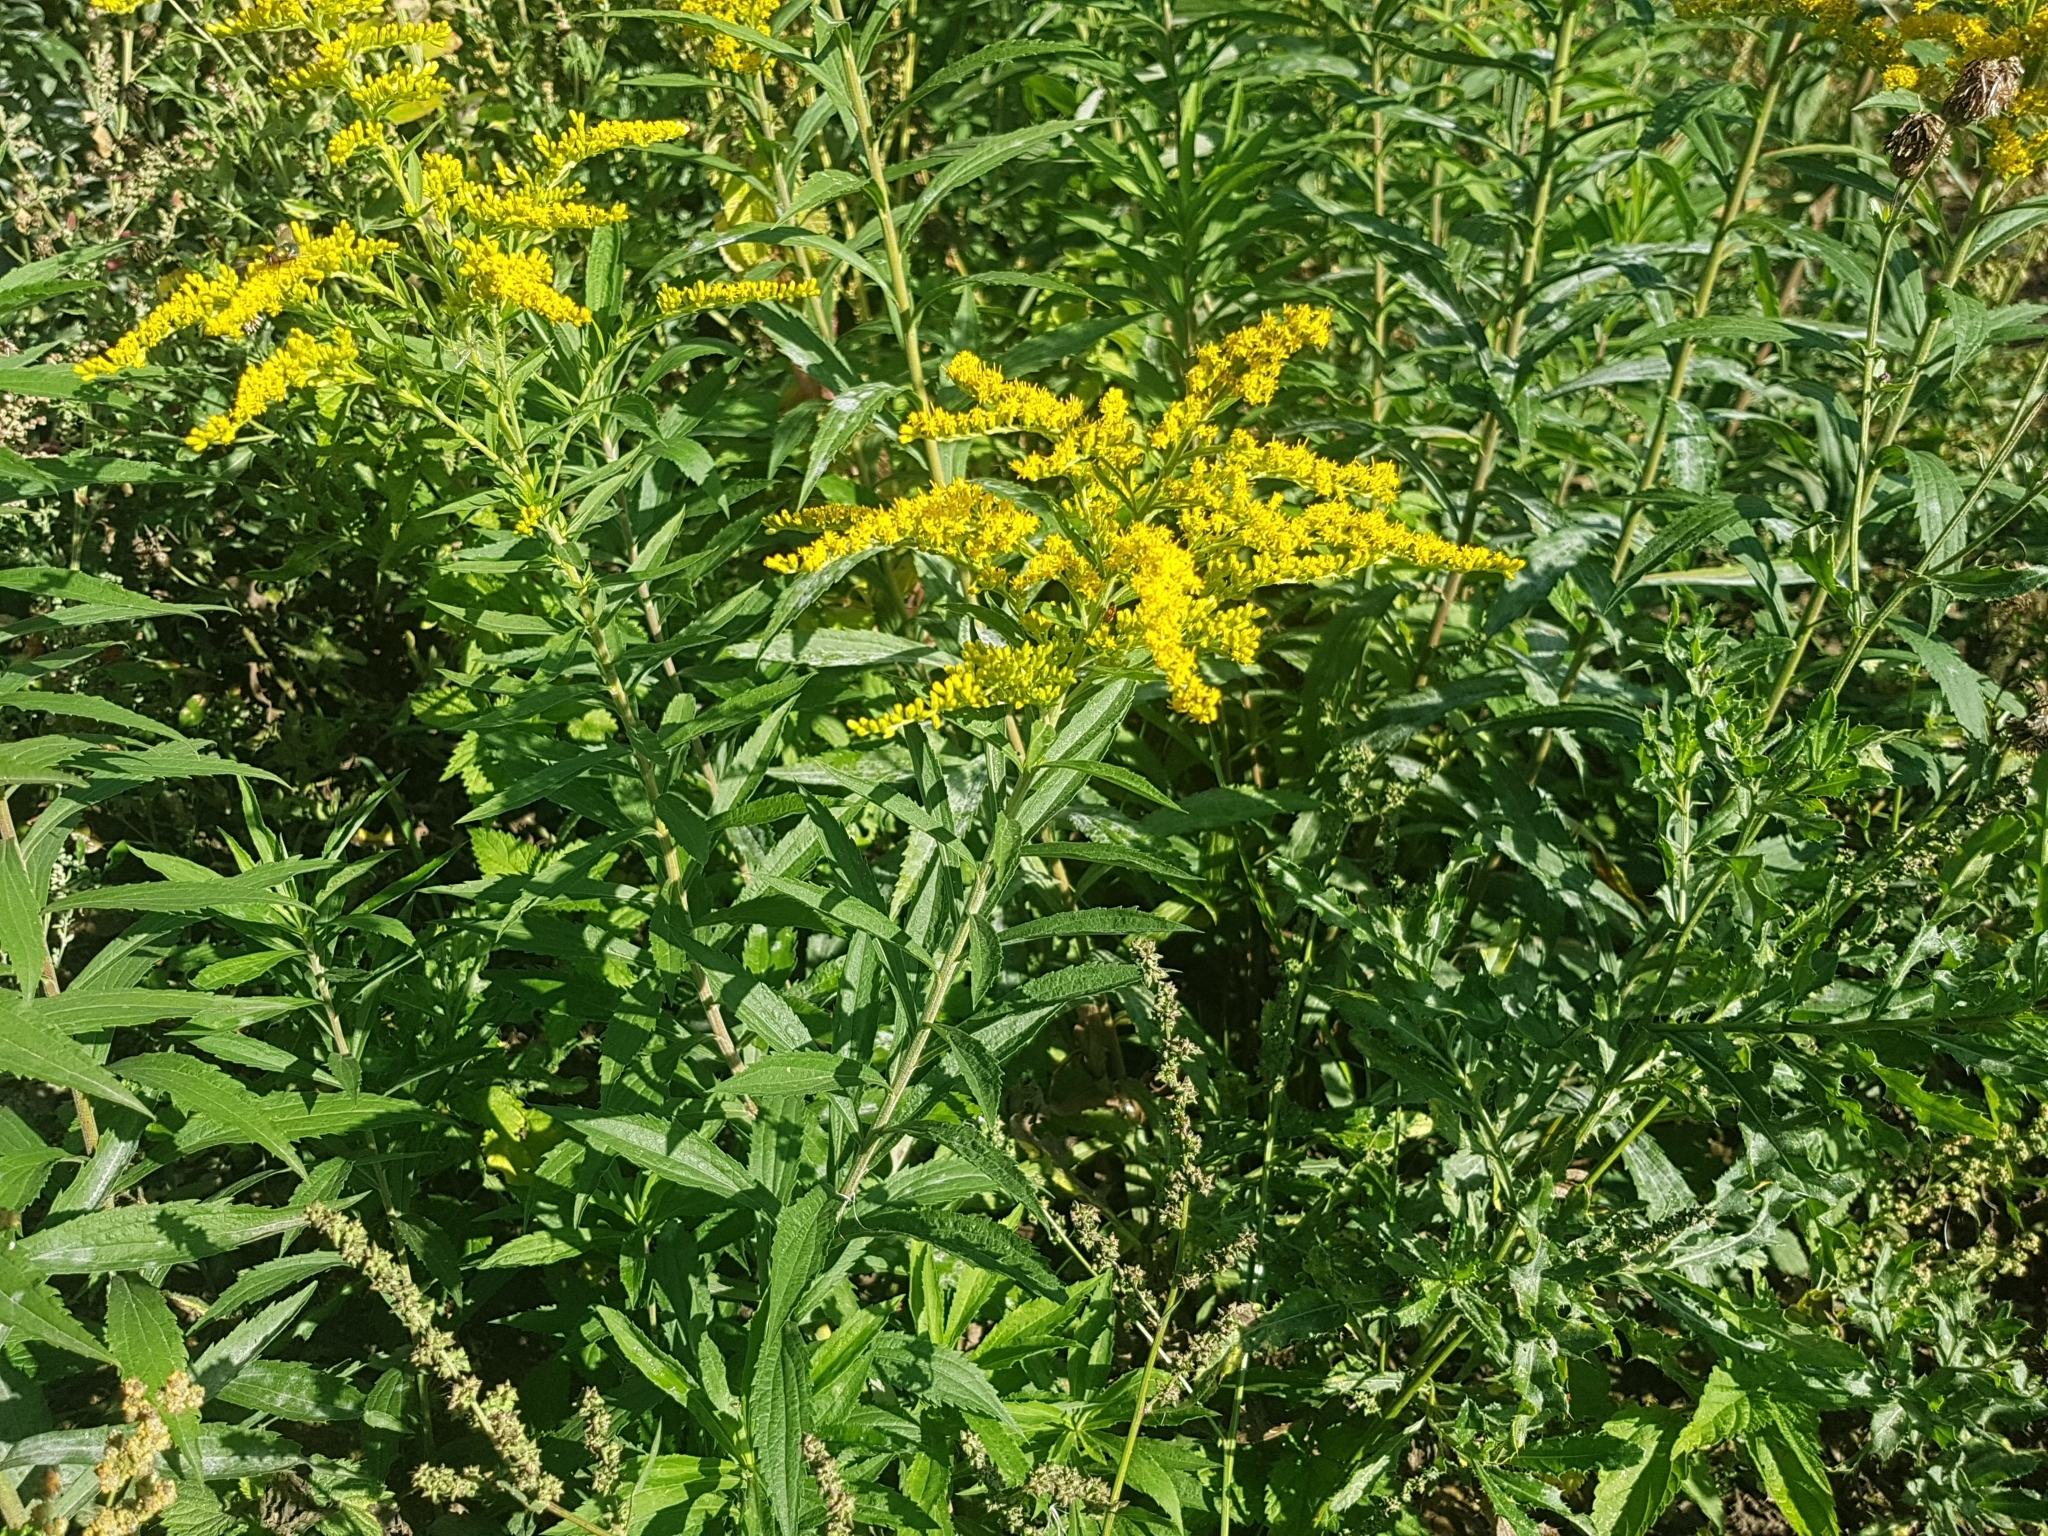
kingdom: Plantae
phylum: Tracheophyta
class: Magnoliopsida
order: Asterales
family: Asteraceae
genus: Solidago
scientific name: Solidago canadensis
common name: Canada goldenrod
